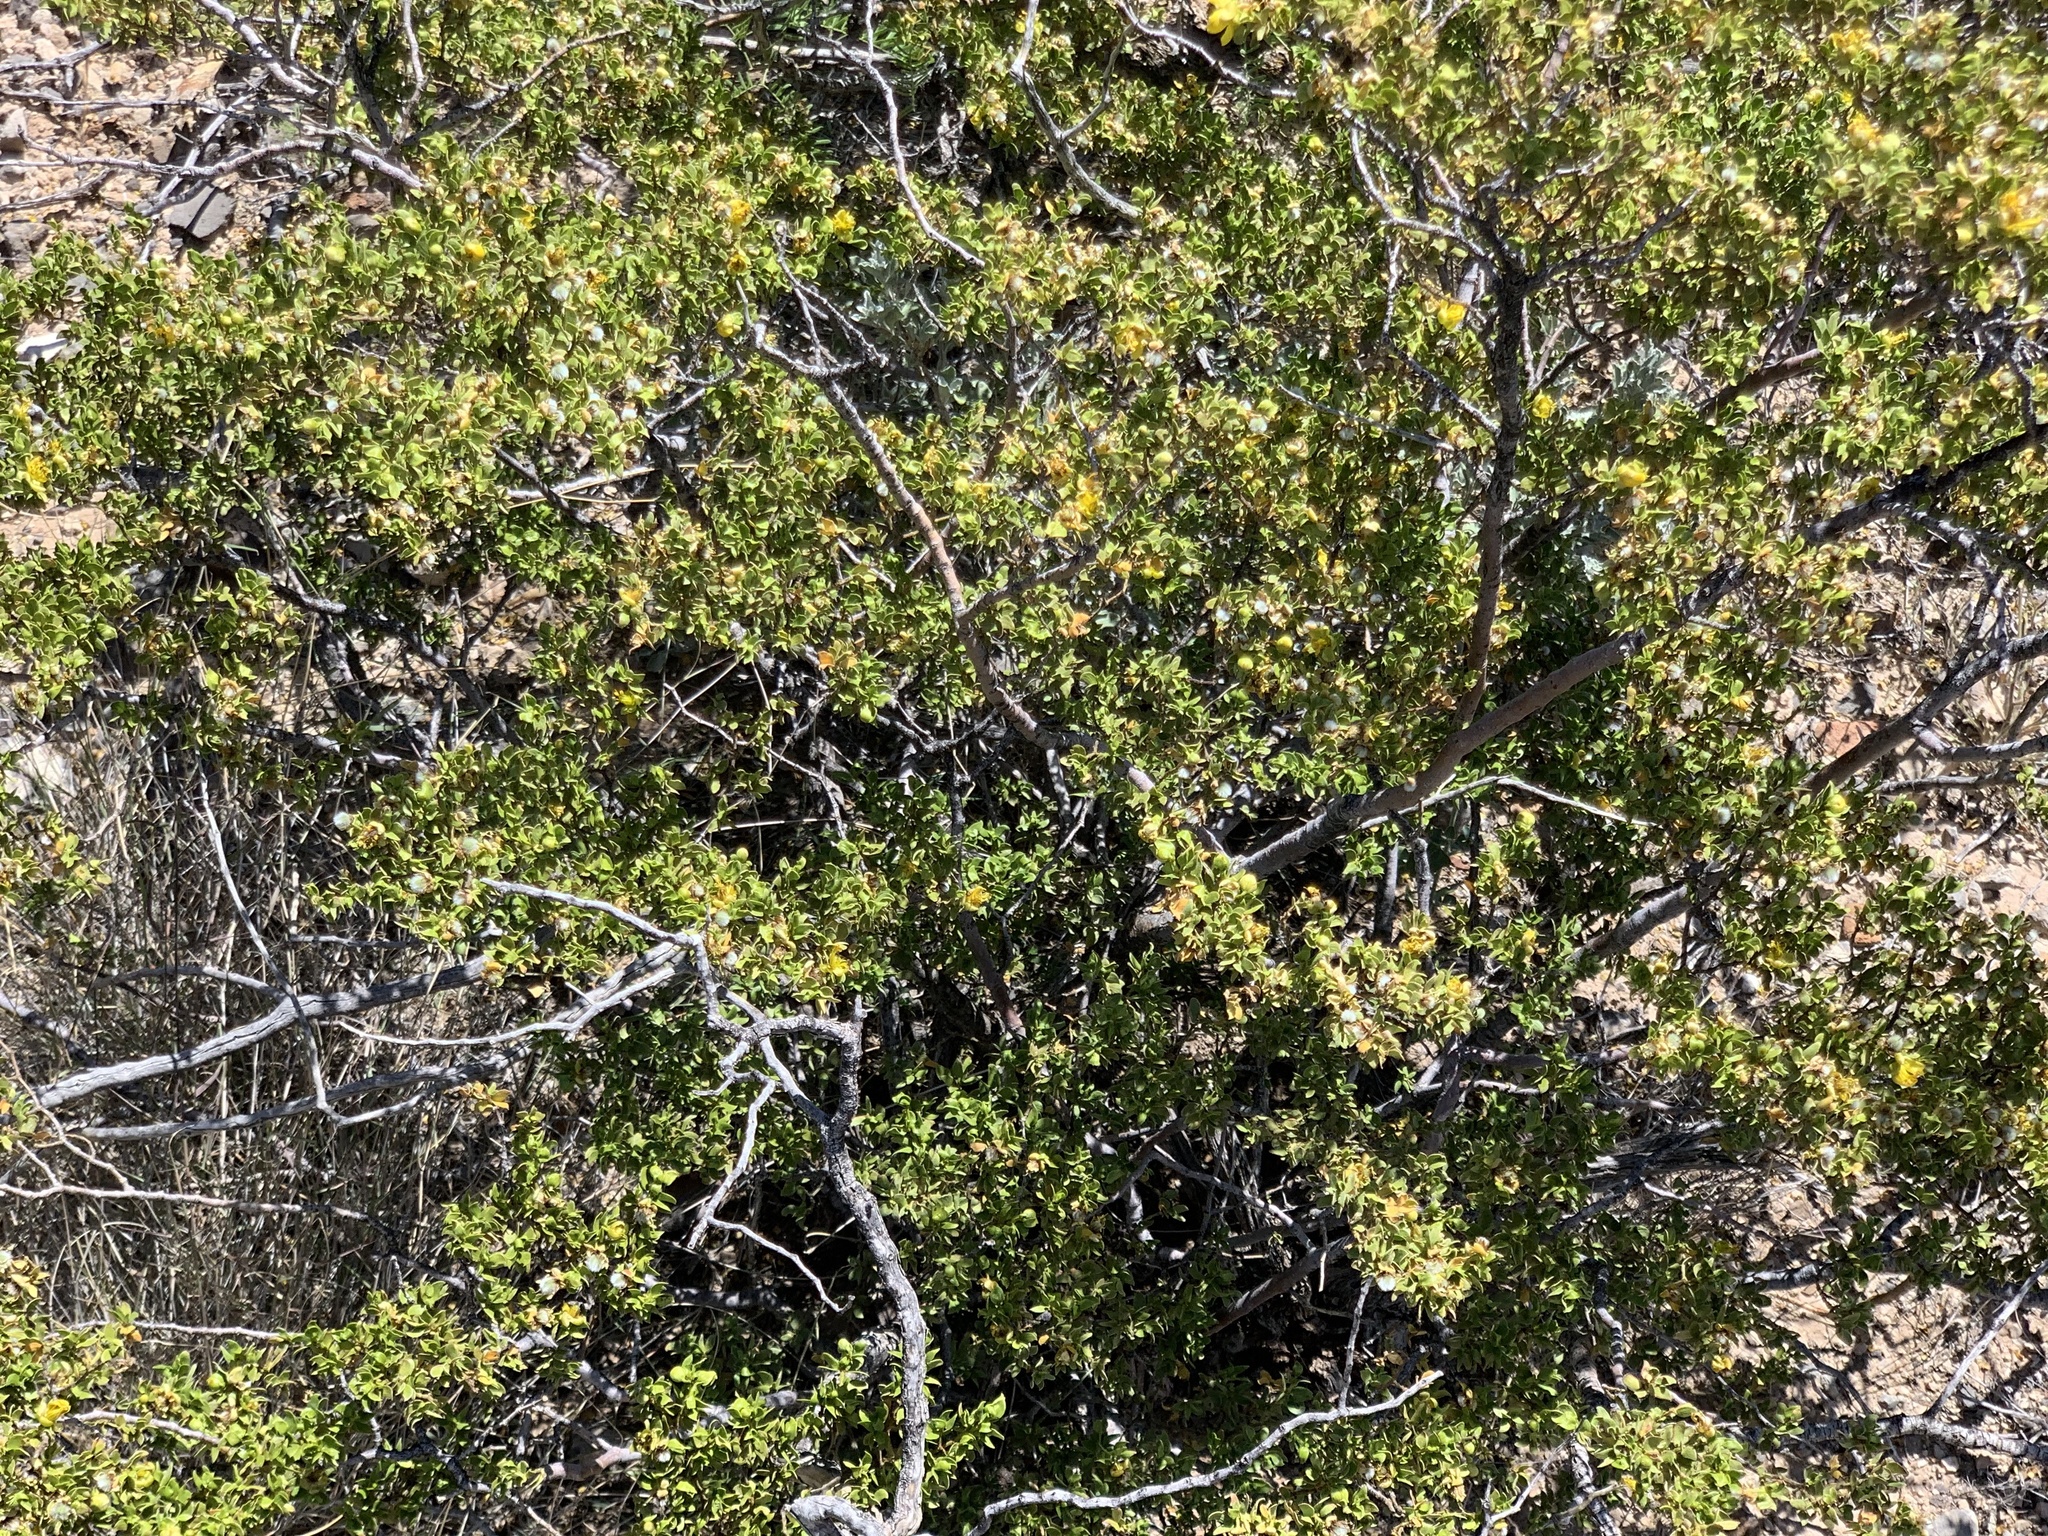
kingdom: Plantae
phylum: Tracheophyta
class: Magnoliopsida
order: Zygophyllales
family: Zygophyllaceae
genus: Larrea
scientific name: Larrea tridentata
